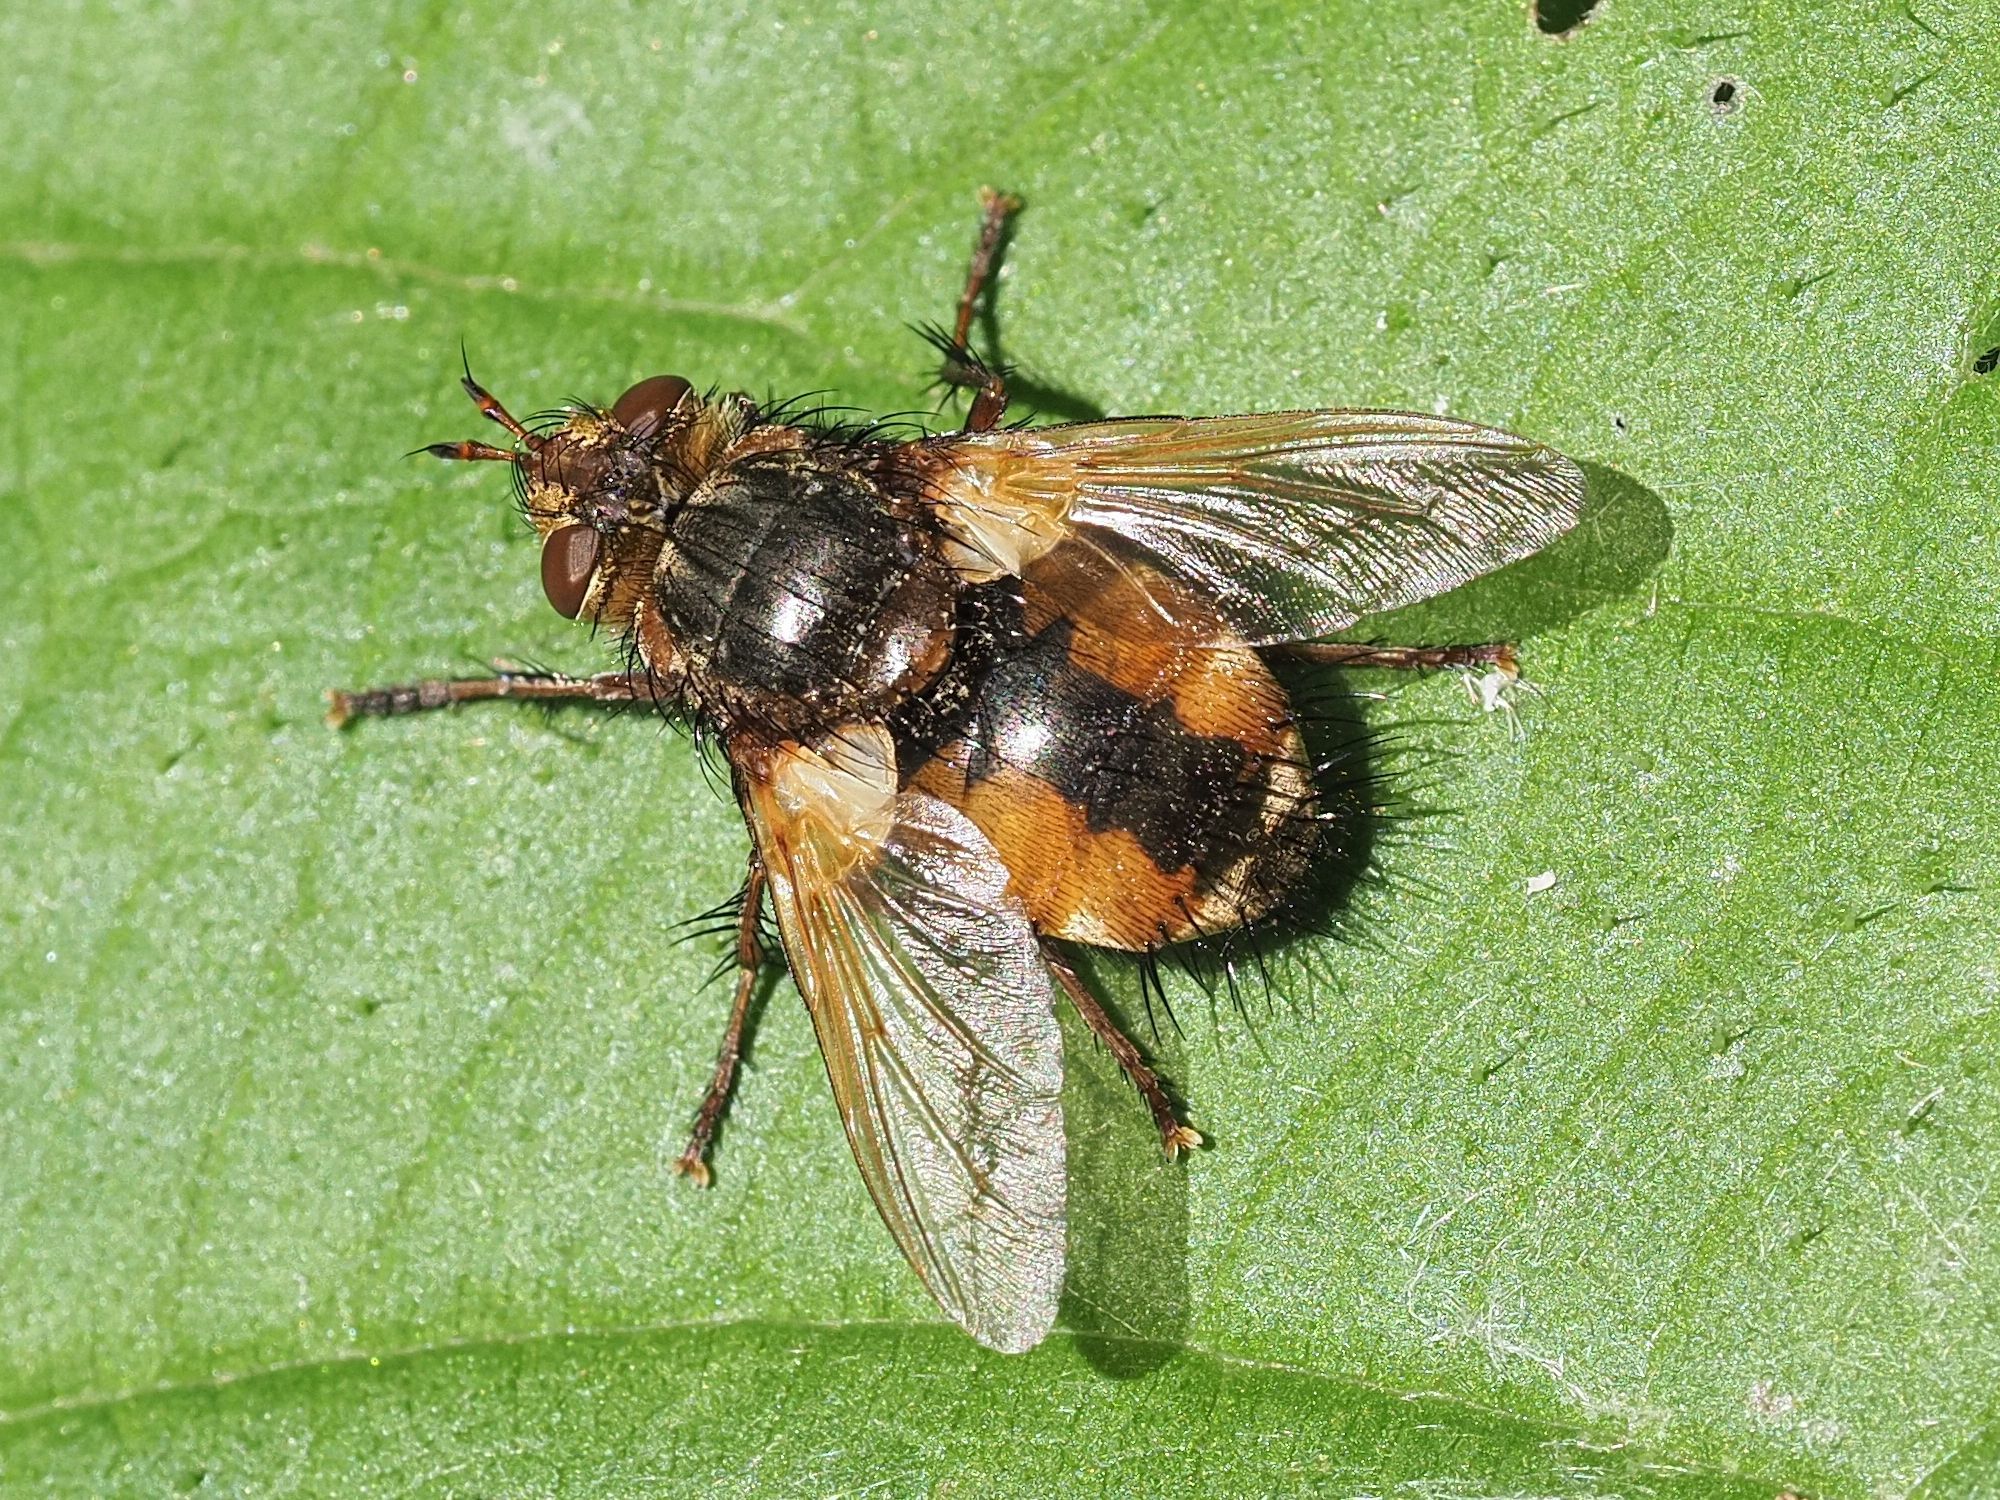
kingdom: Animalia
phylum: Arthropoda
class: Insecta
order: Diptera
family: Tachinidae
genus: Tachina
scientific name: Tachina fera
